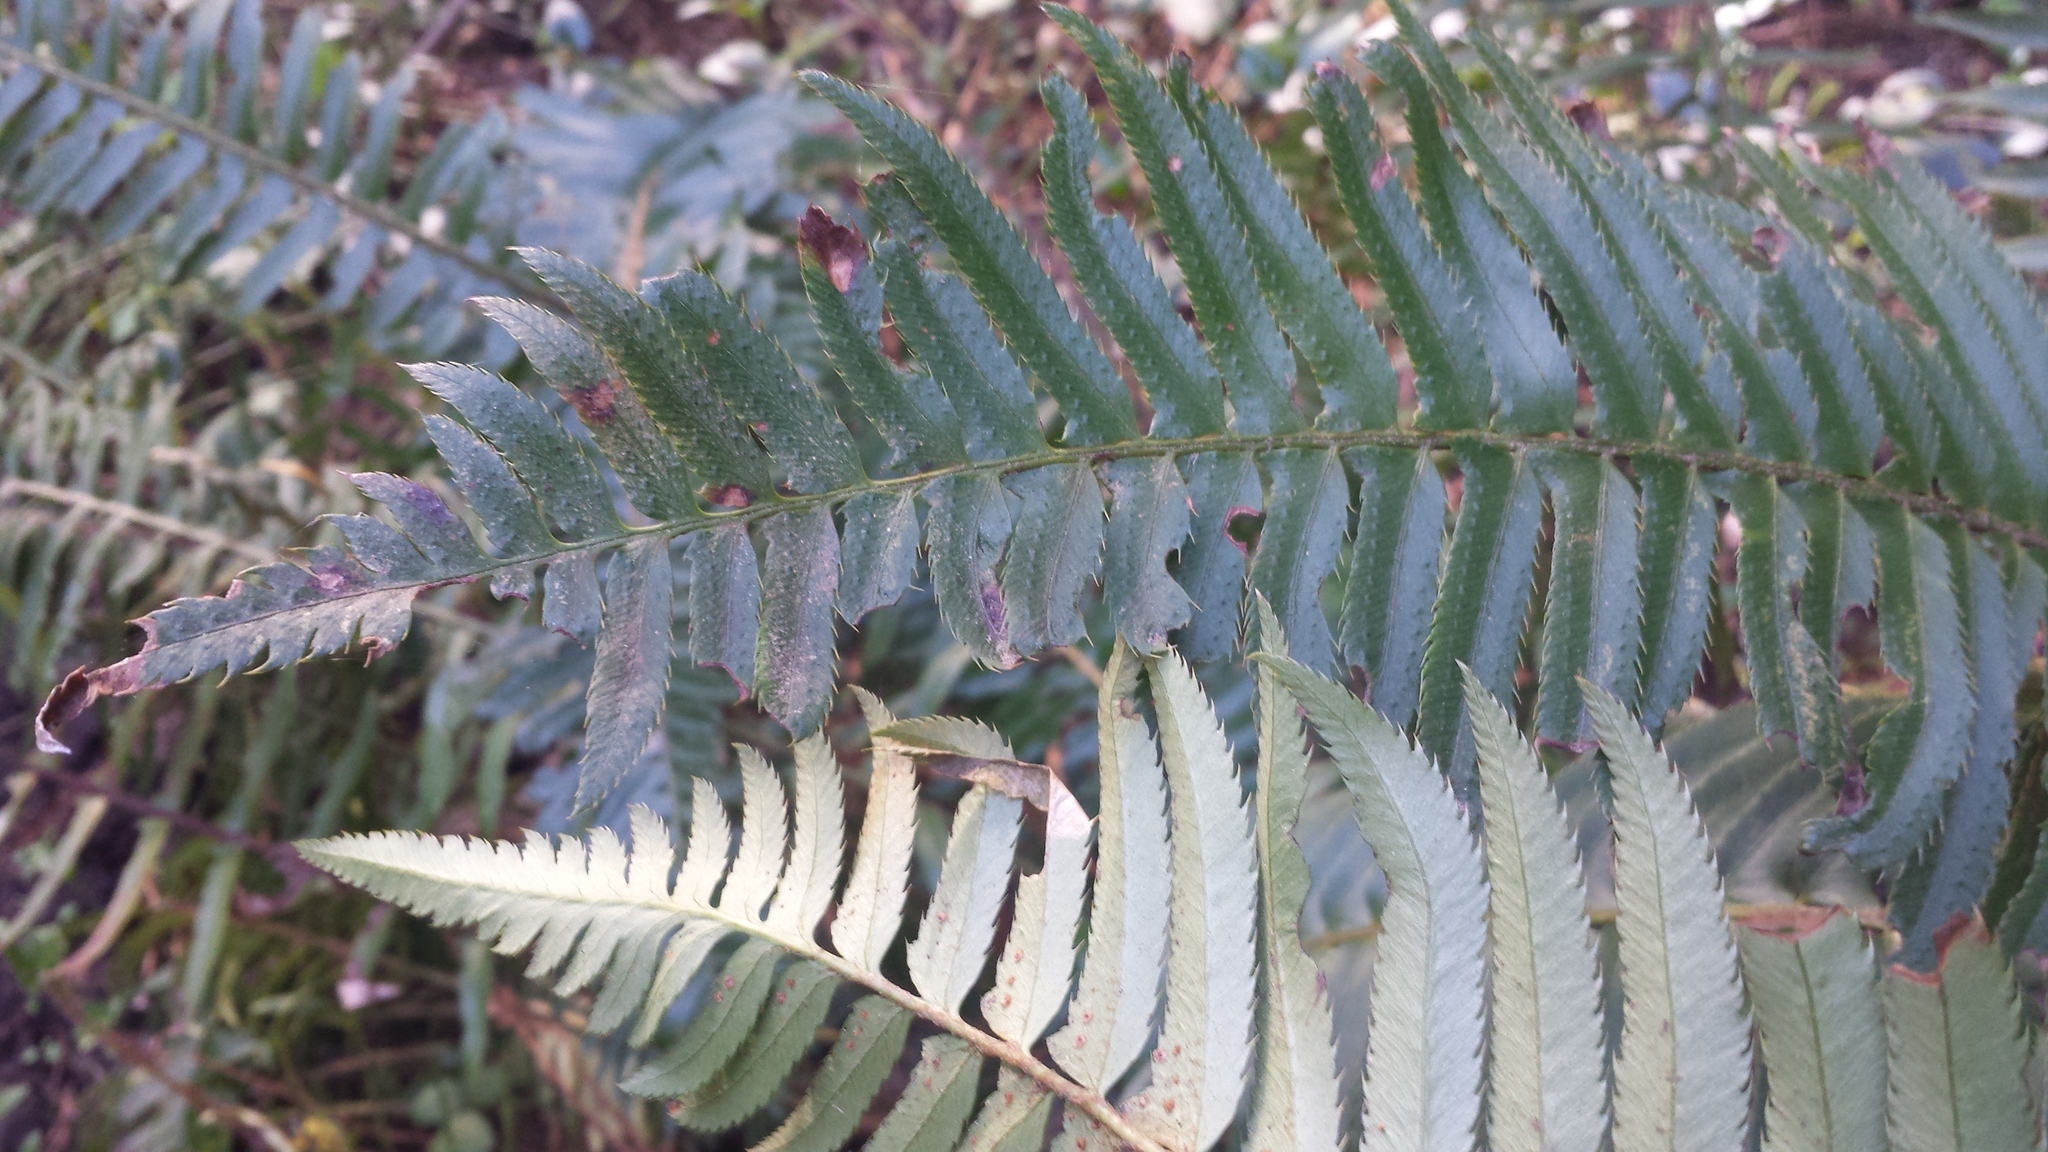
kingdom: Plantae
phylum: Tracheophyta
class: Polypodiopsida
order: Polypodiales
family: Dryopteridaceae
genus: Polystichum
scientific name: Polystichum munitum
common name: Western sword-fern
